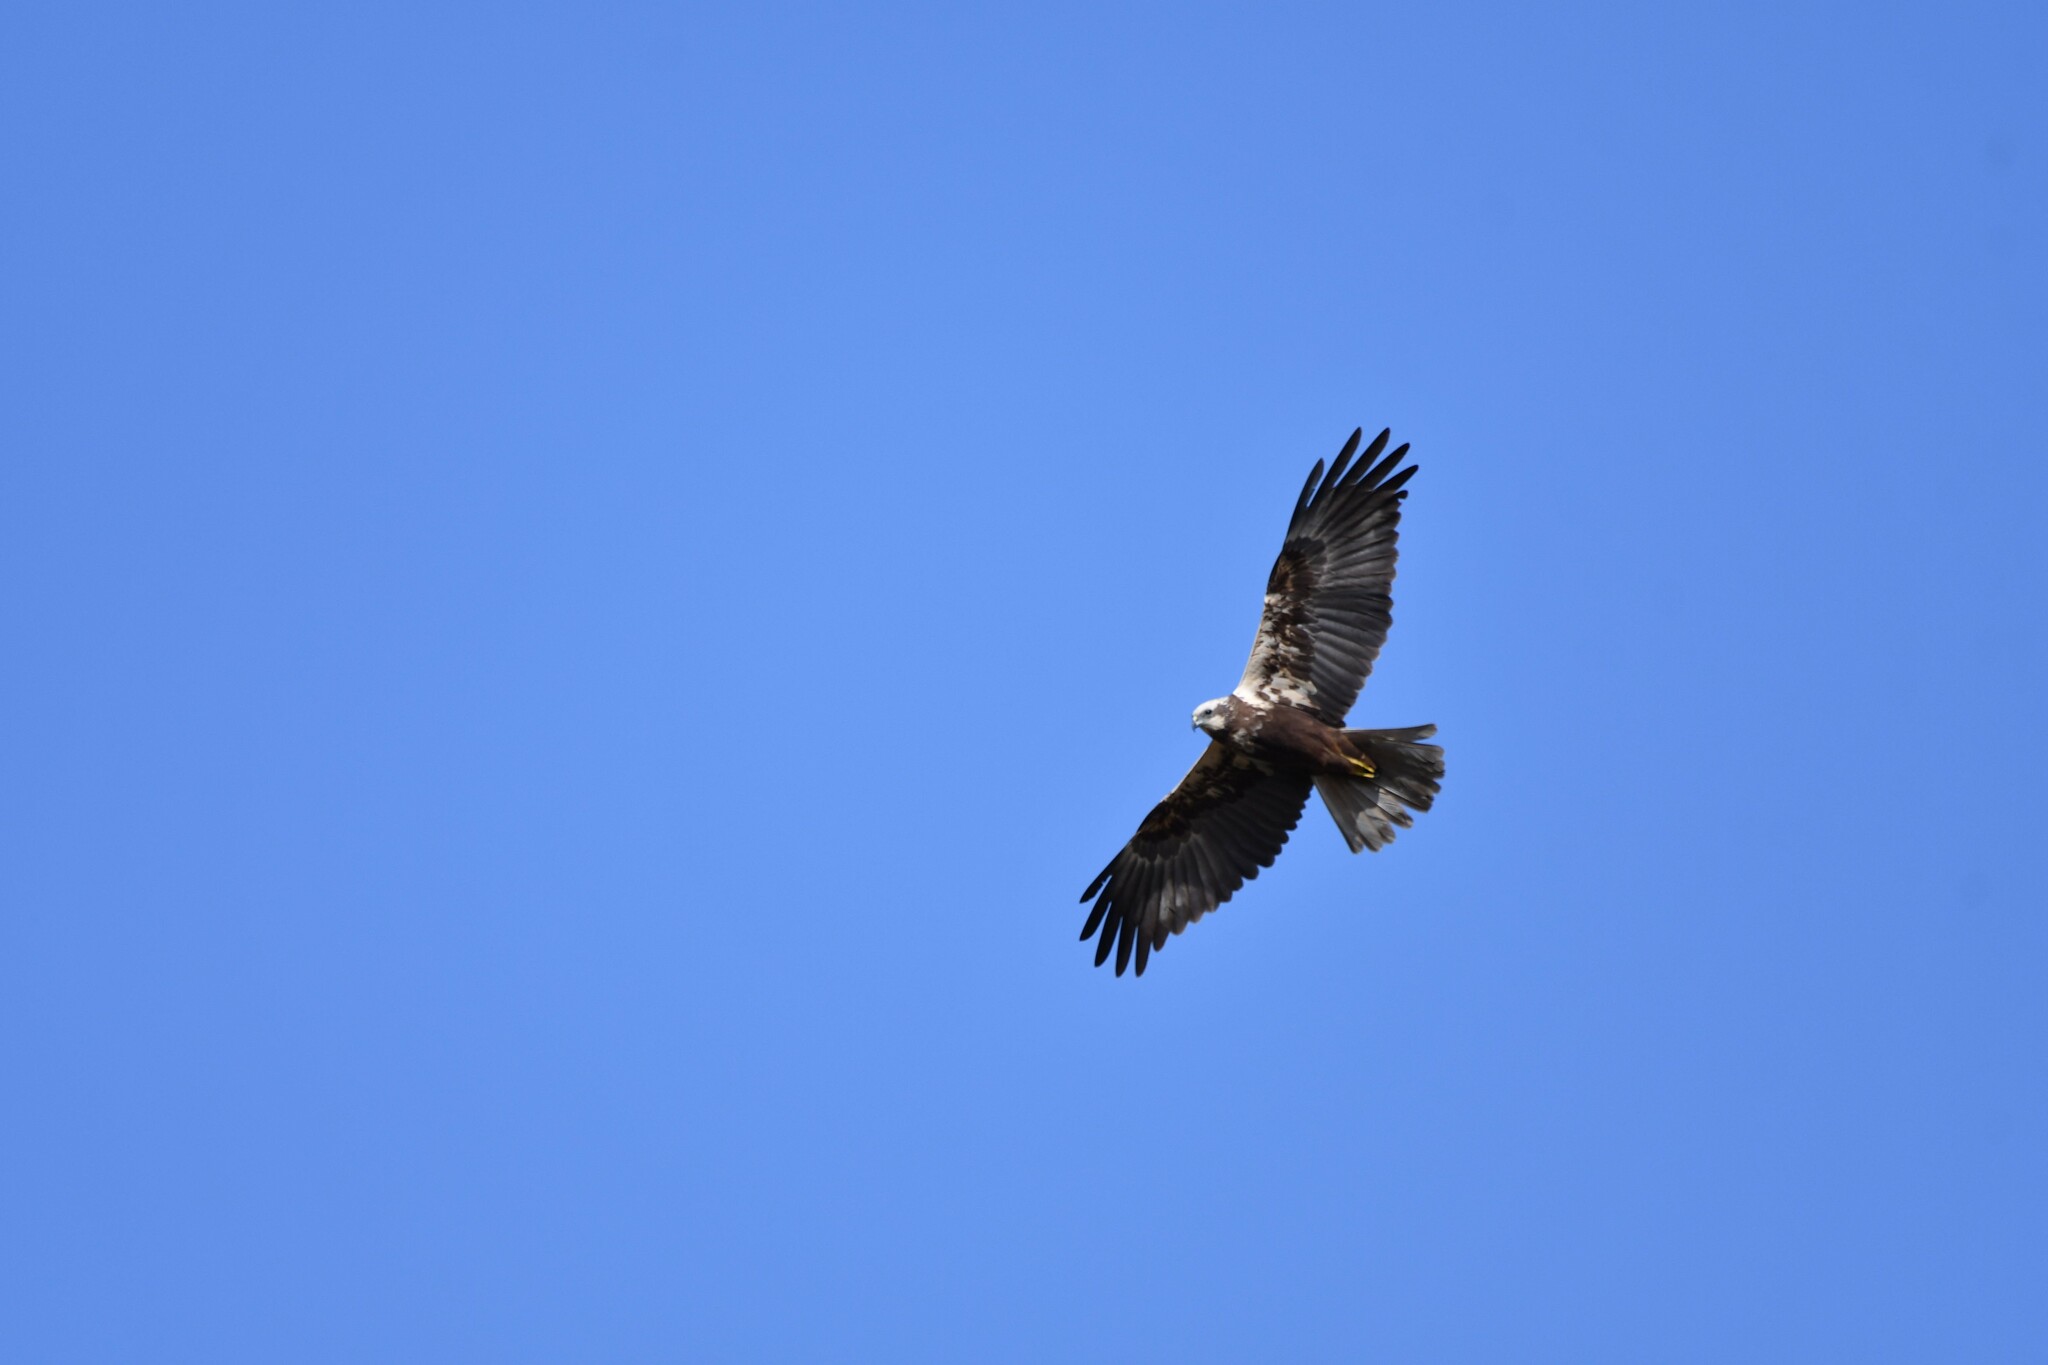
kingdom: Animalia
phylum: Chordata
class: Aves
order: Accipitriformes
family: Accipitridae
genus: Circus
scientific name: Circus aeruginosus
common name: Western marsh harrier
